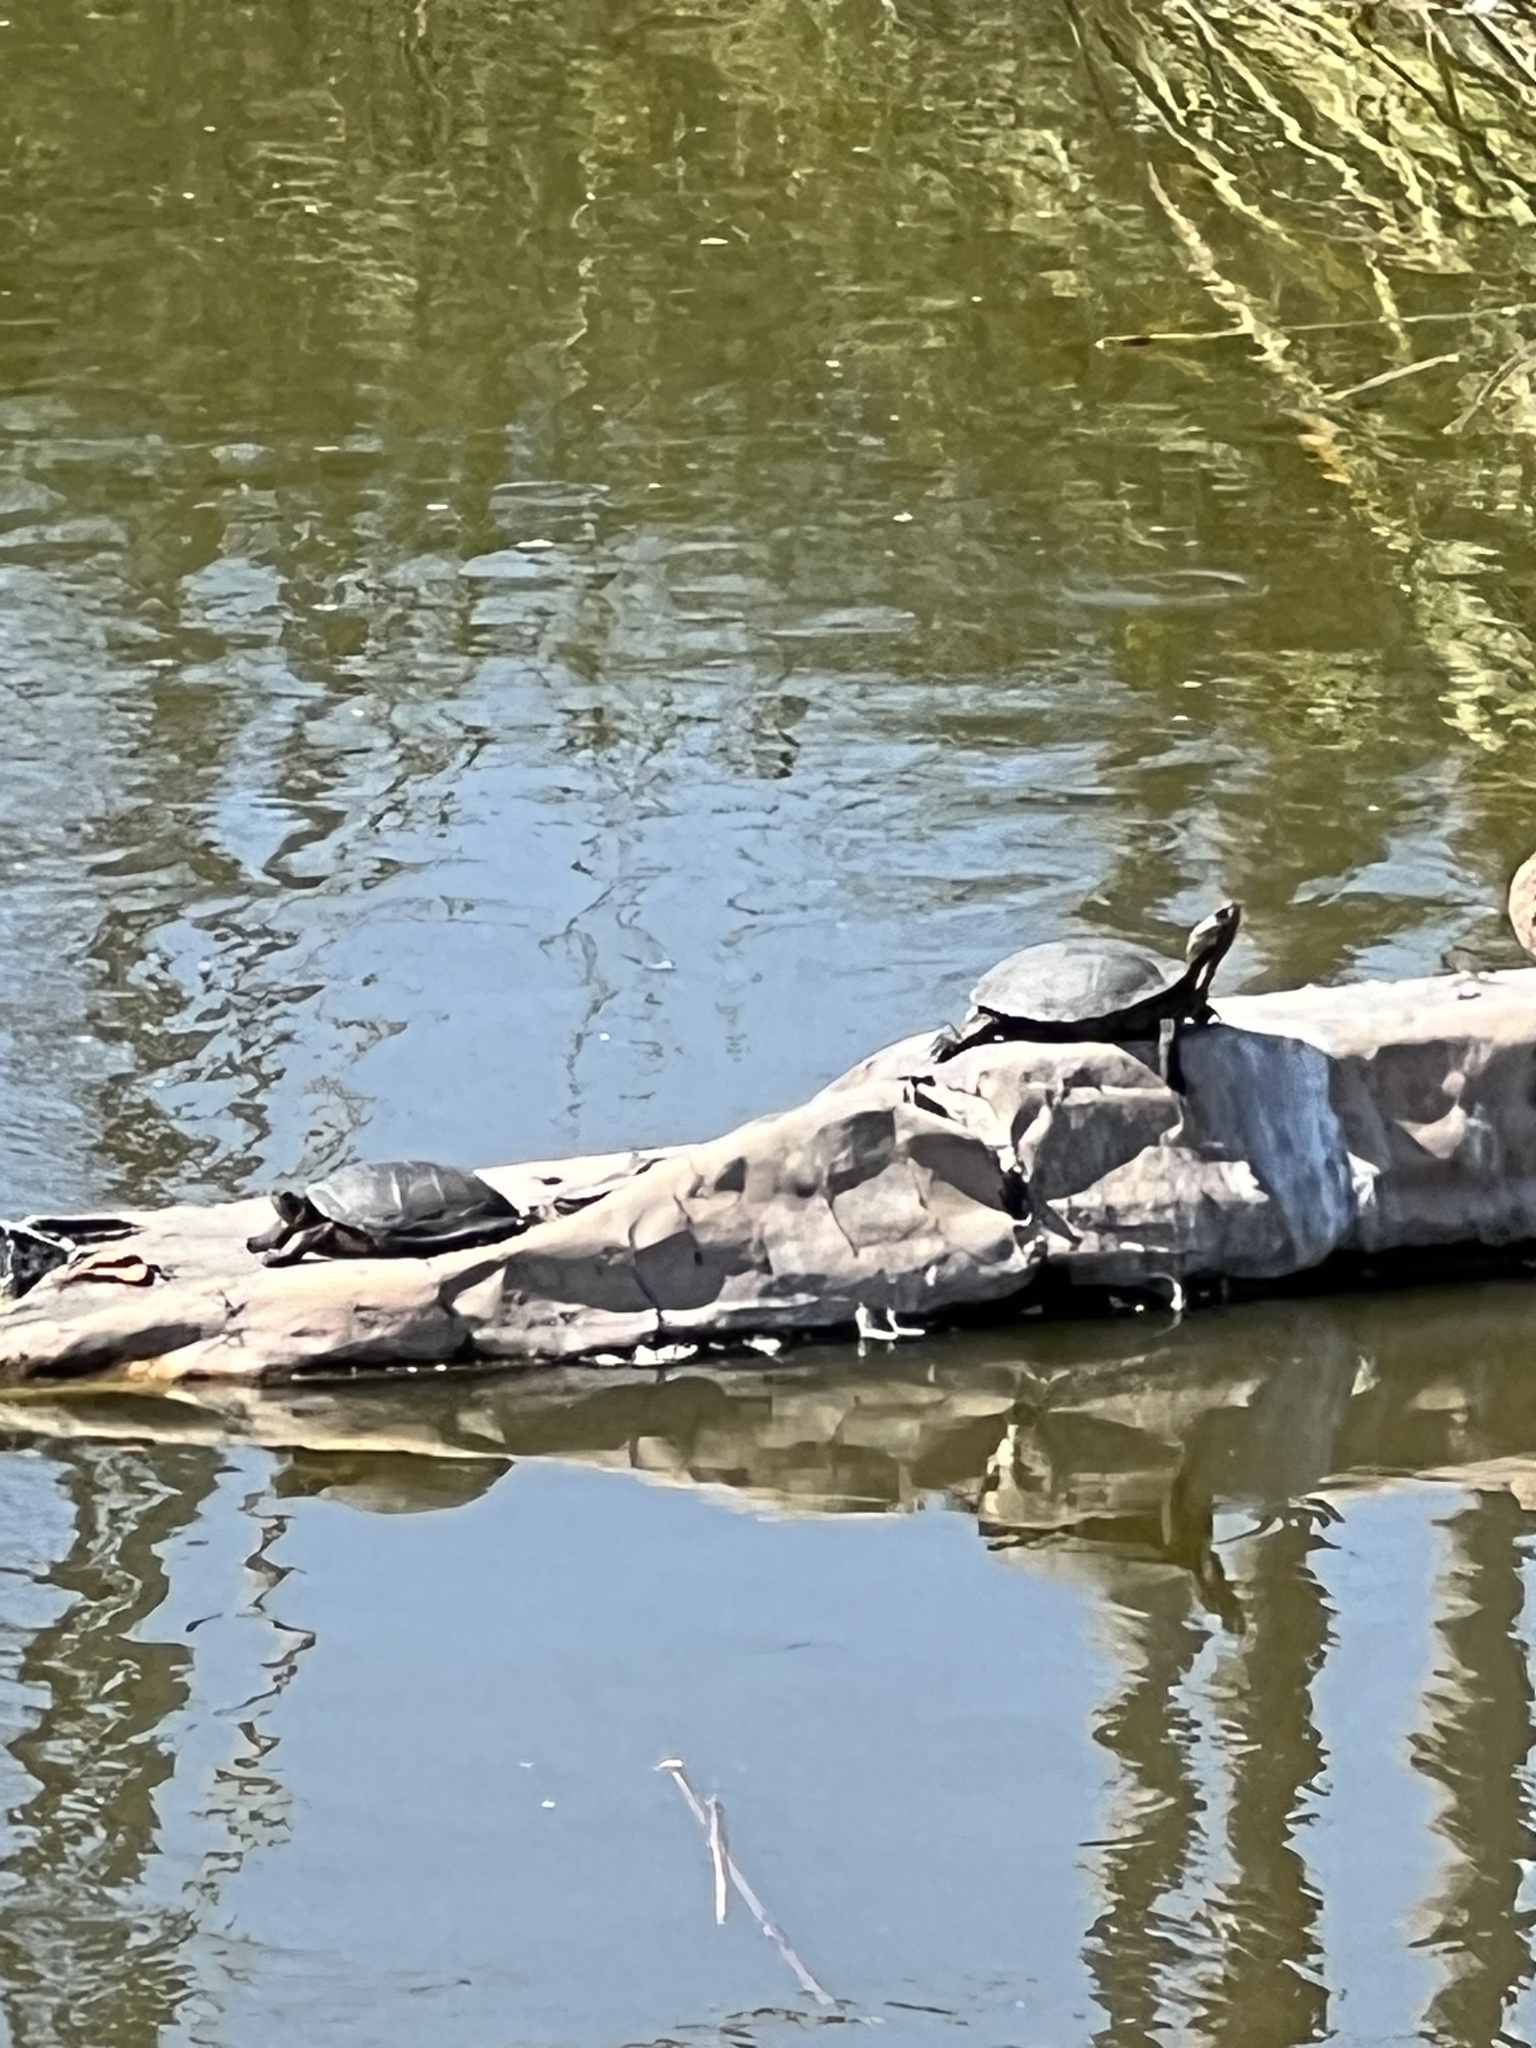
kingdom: Animalia
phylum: Chordata
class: Testudines
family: Emydidae
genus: Actinemys
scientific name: Actinemys marmorata
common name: Western pond turtle
